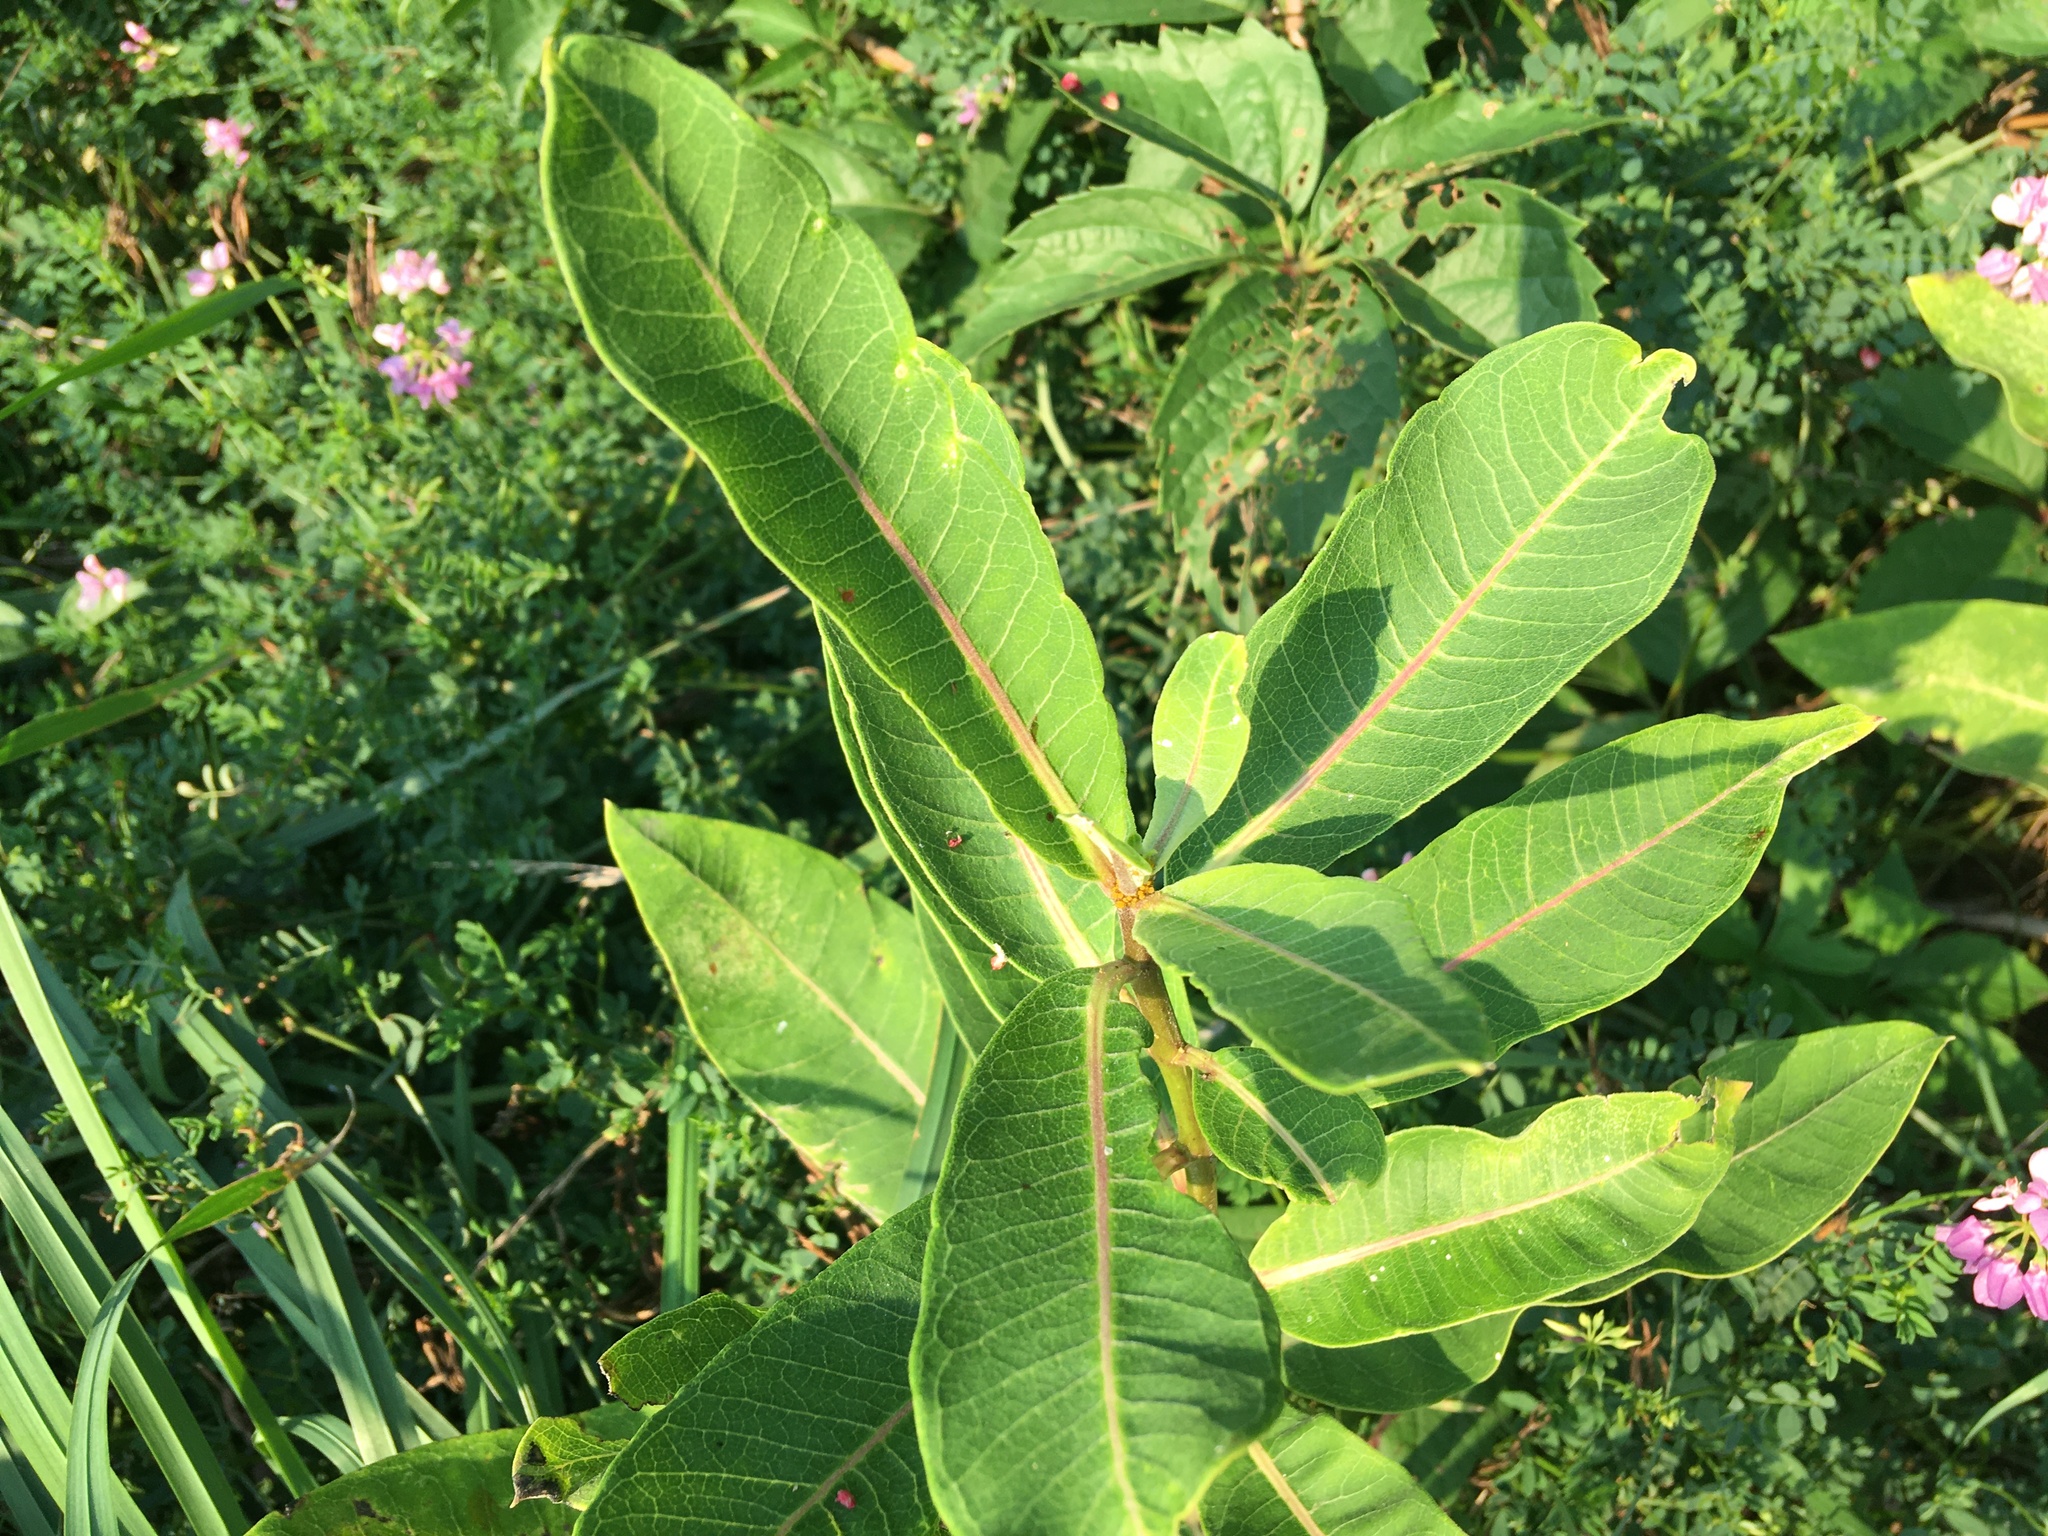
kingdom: Plantae
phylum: Tracheophyta
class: Magnoliopsida
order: Gentianales
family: Apocynaceae
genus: Asclepias
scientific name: Asclepias syriaca
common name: Common milkweed
